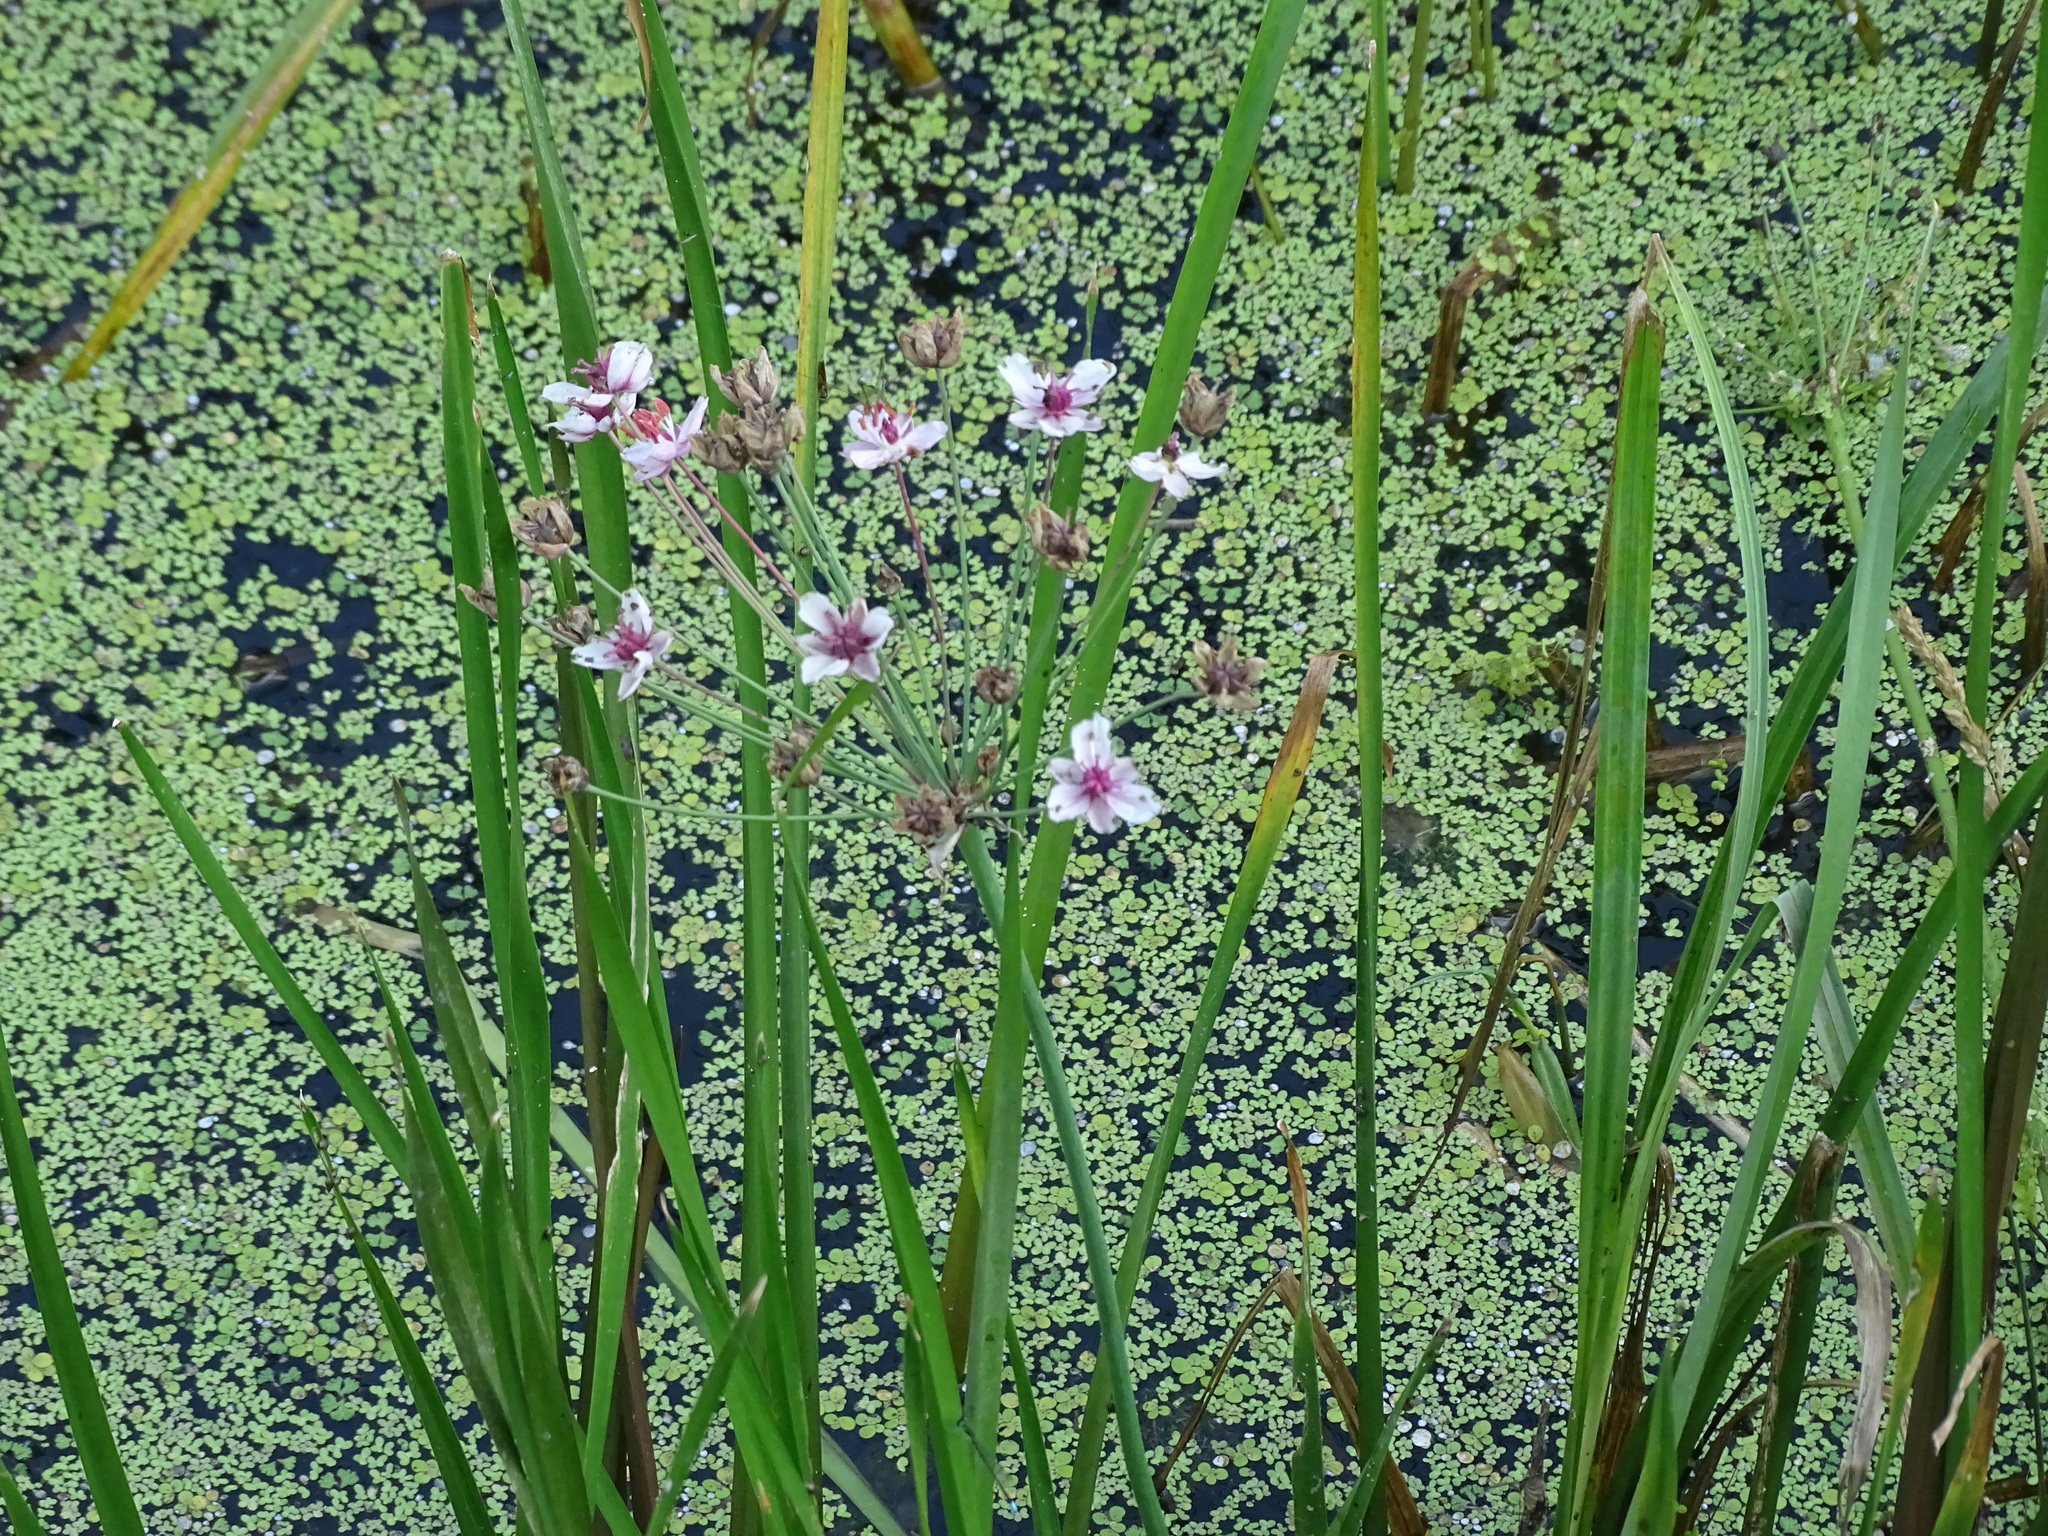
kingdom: Plantae
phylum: Tracheophyta
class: Liliopsida
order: Alismatales
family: Butomaceae
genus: Butomus
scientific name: Butomus umbellatus
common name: Flowering-rush
